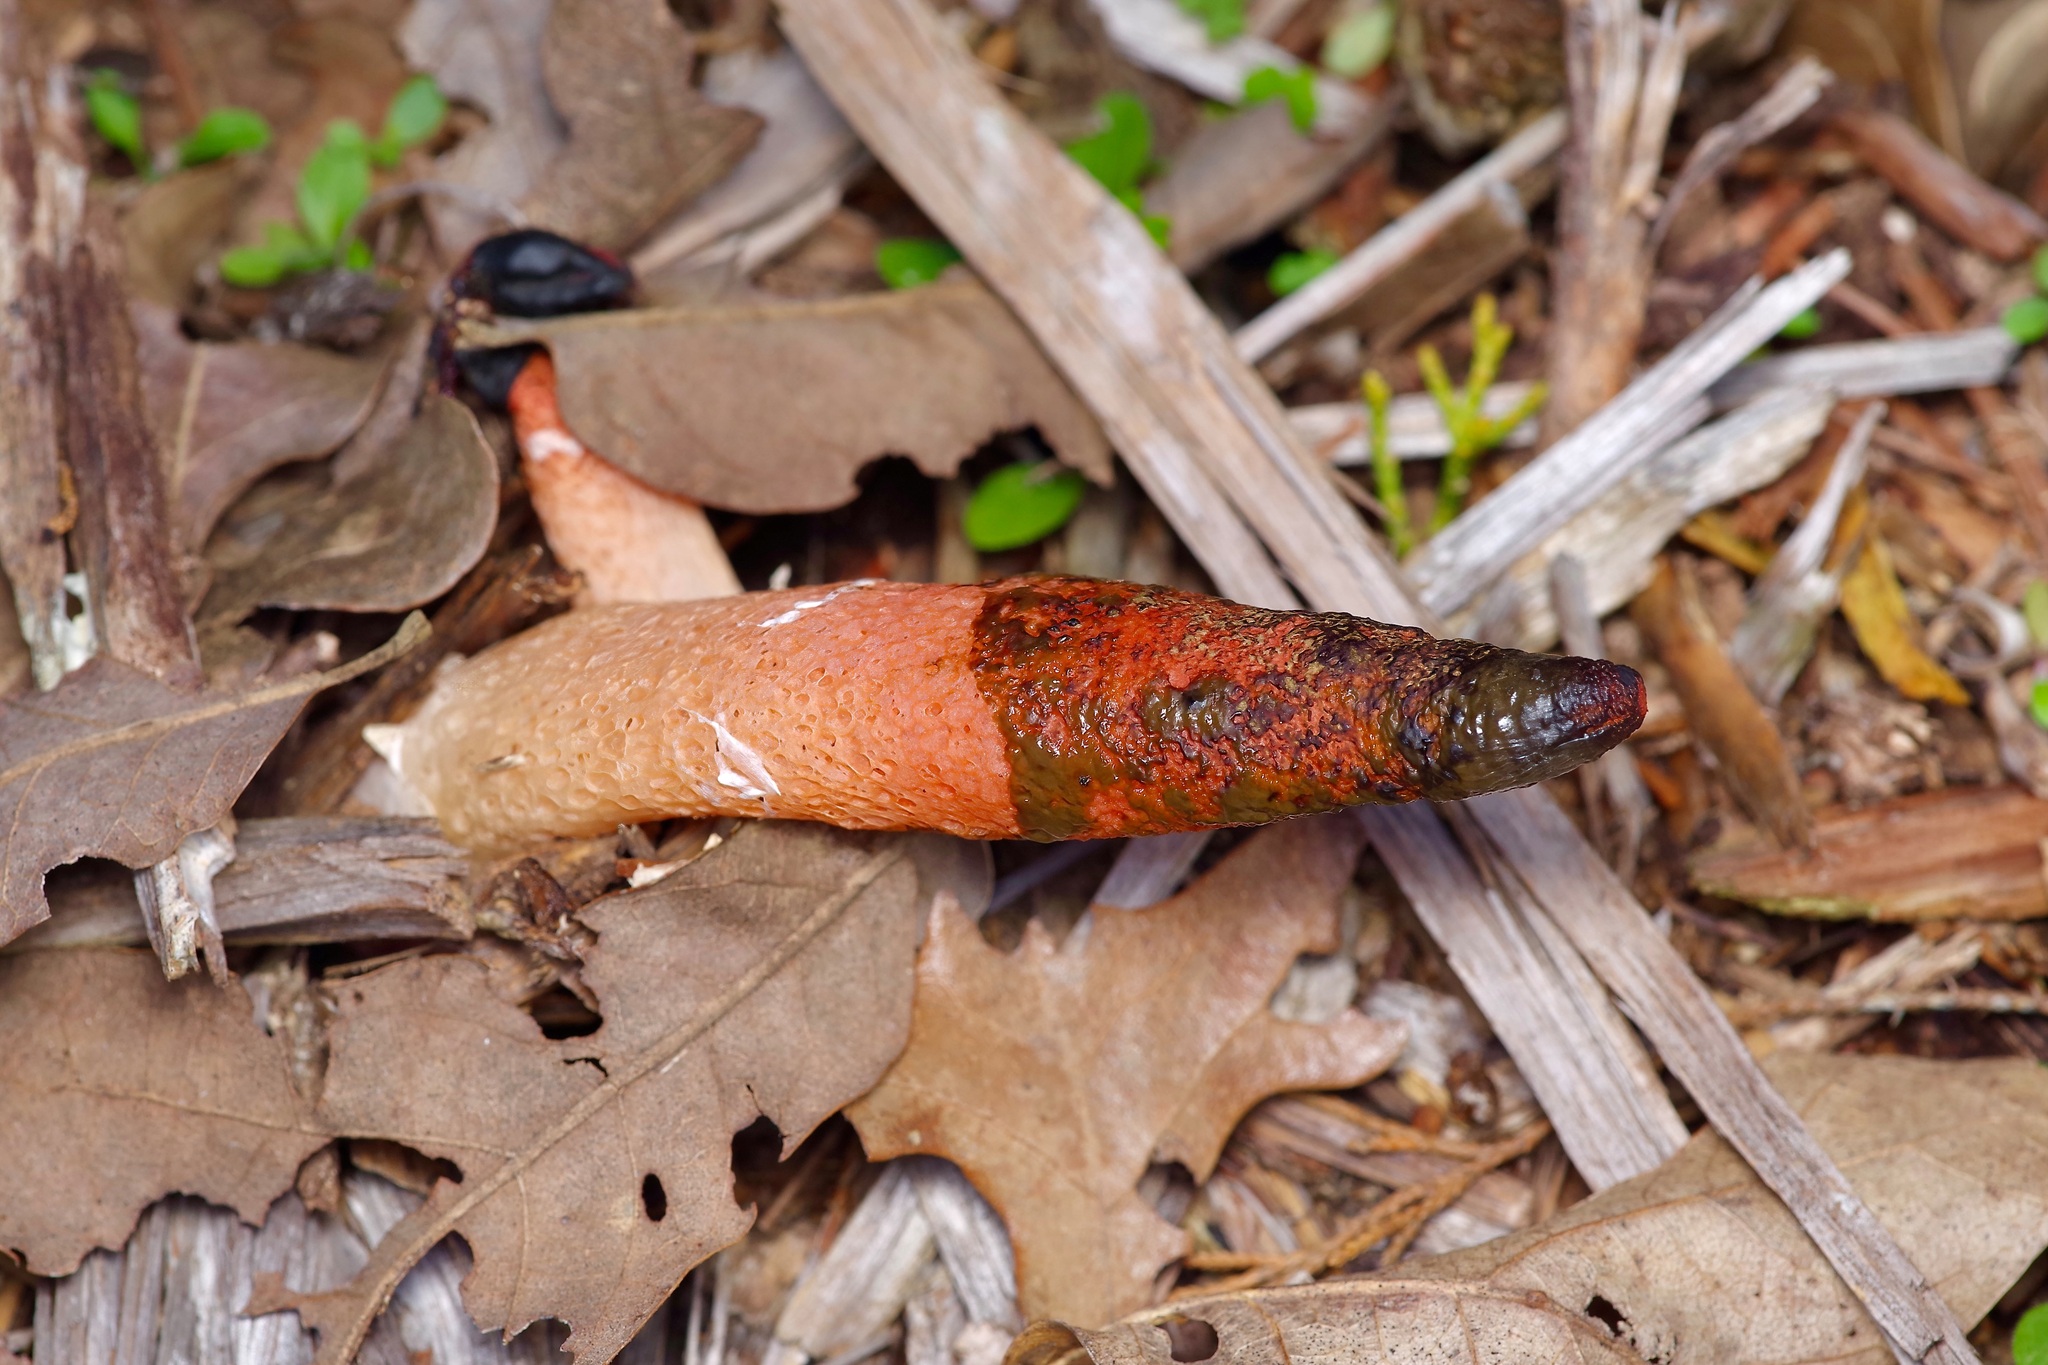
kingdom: Fungi
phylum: Basidiomycota
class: Agaricomycetes
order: Phallales
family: Phallaceae
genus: Mutinus
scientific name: Mutinus elegans
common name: Devil's dipstick
